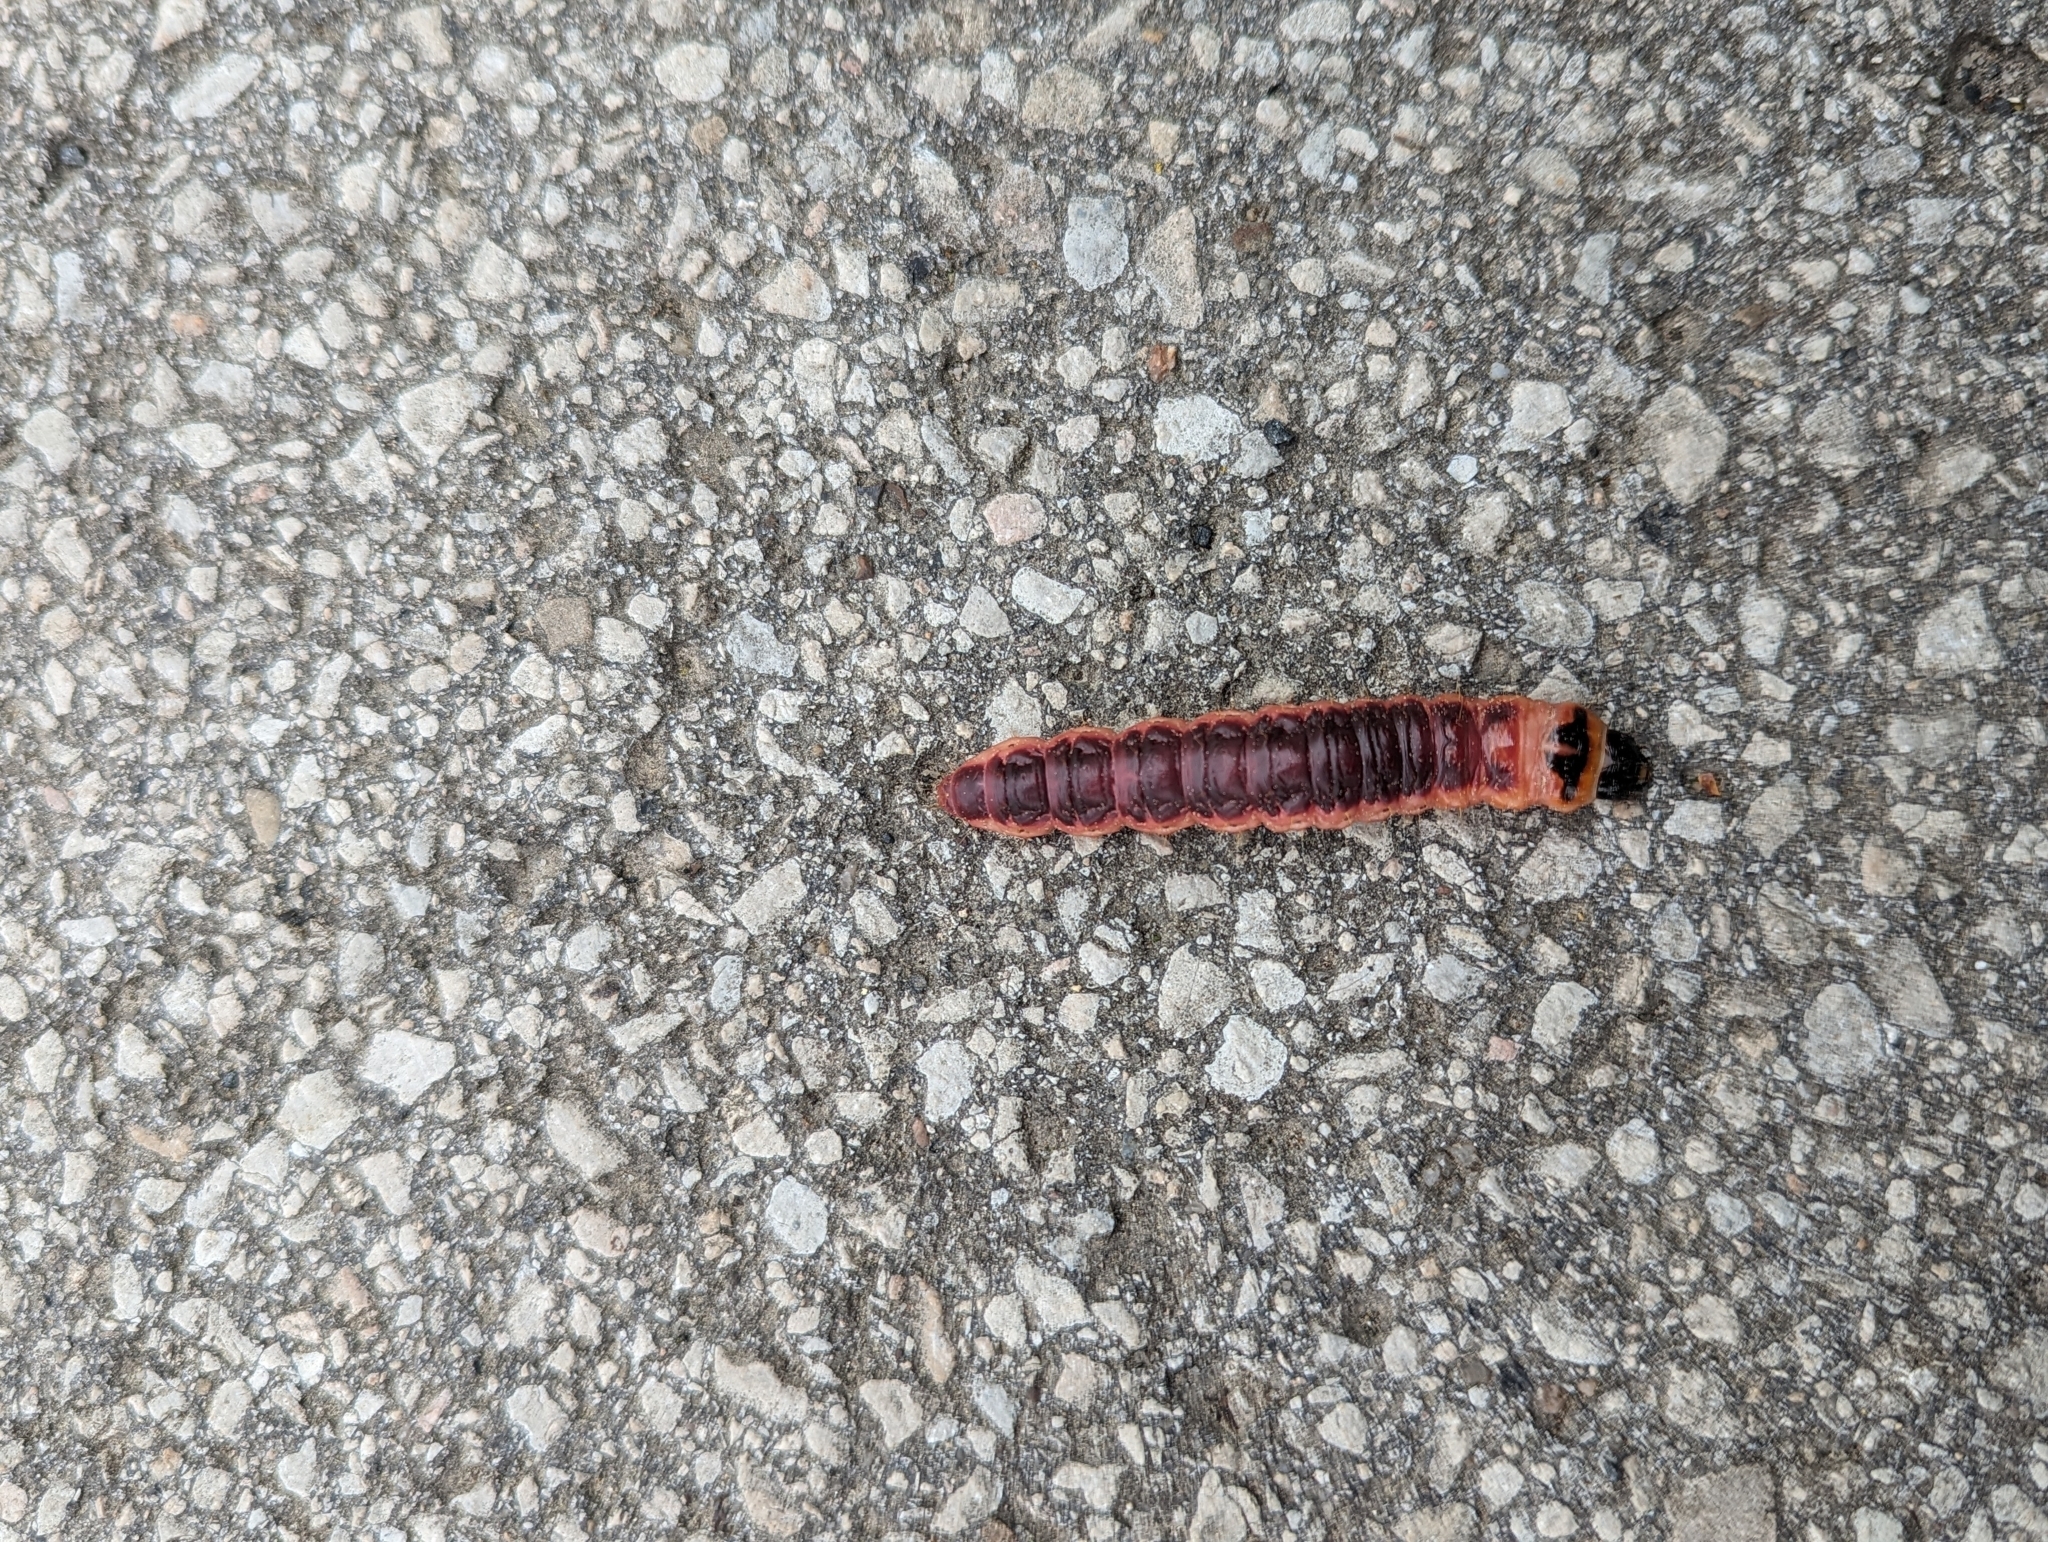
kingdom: Animalia
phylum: Arthropoda
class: Insecta
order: Lepidoptera
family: Cossidae
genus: Cossus
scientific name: Cossus cossus
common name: Goat moth
